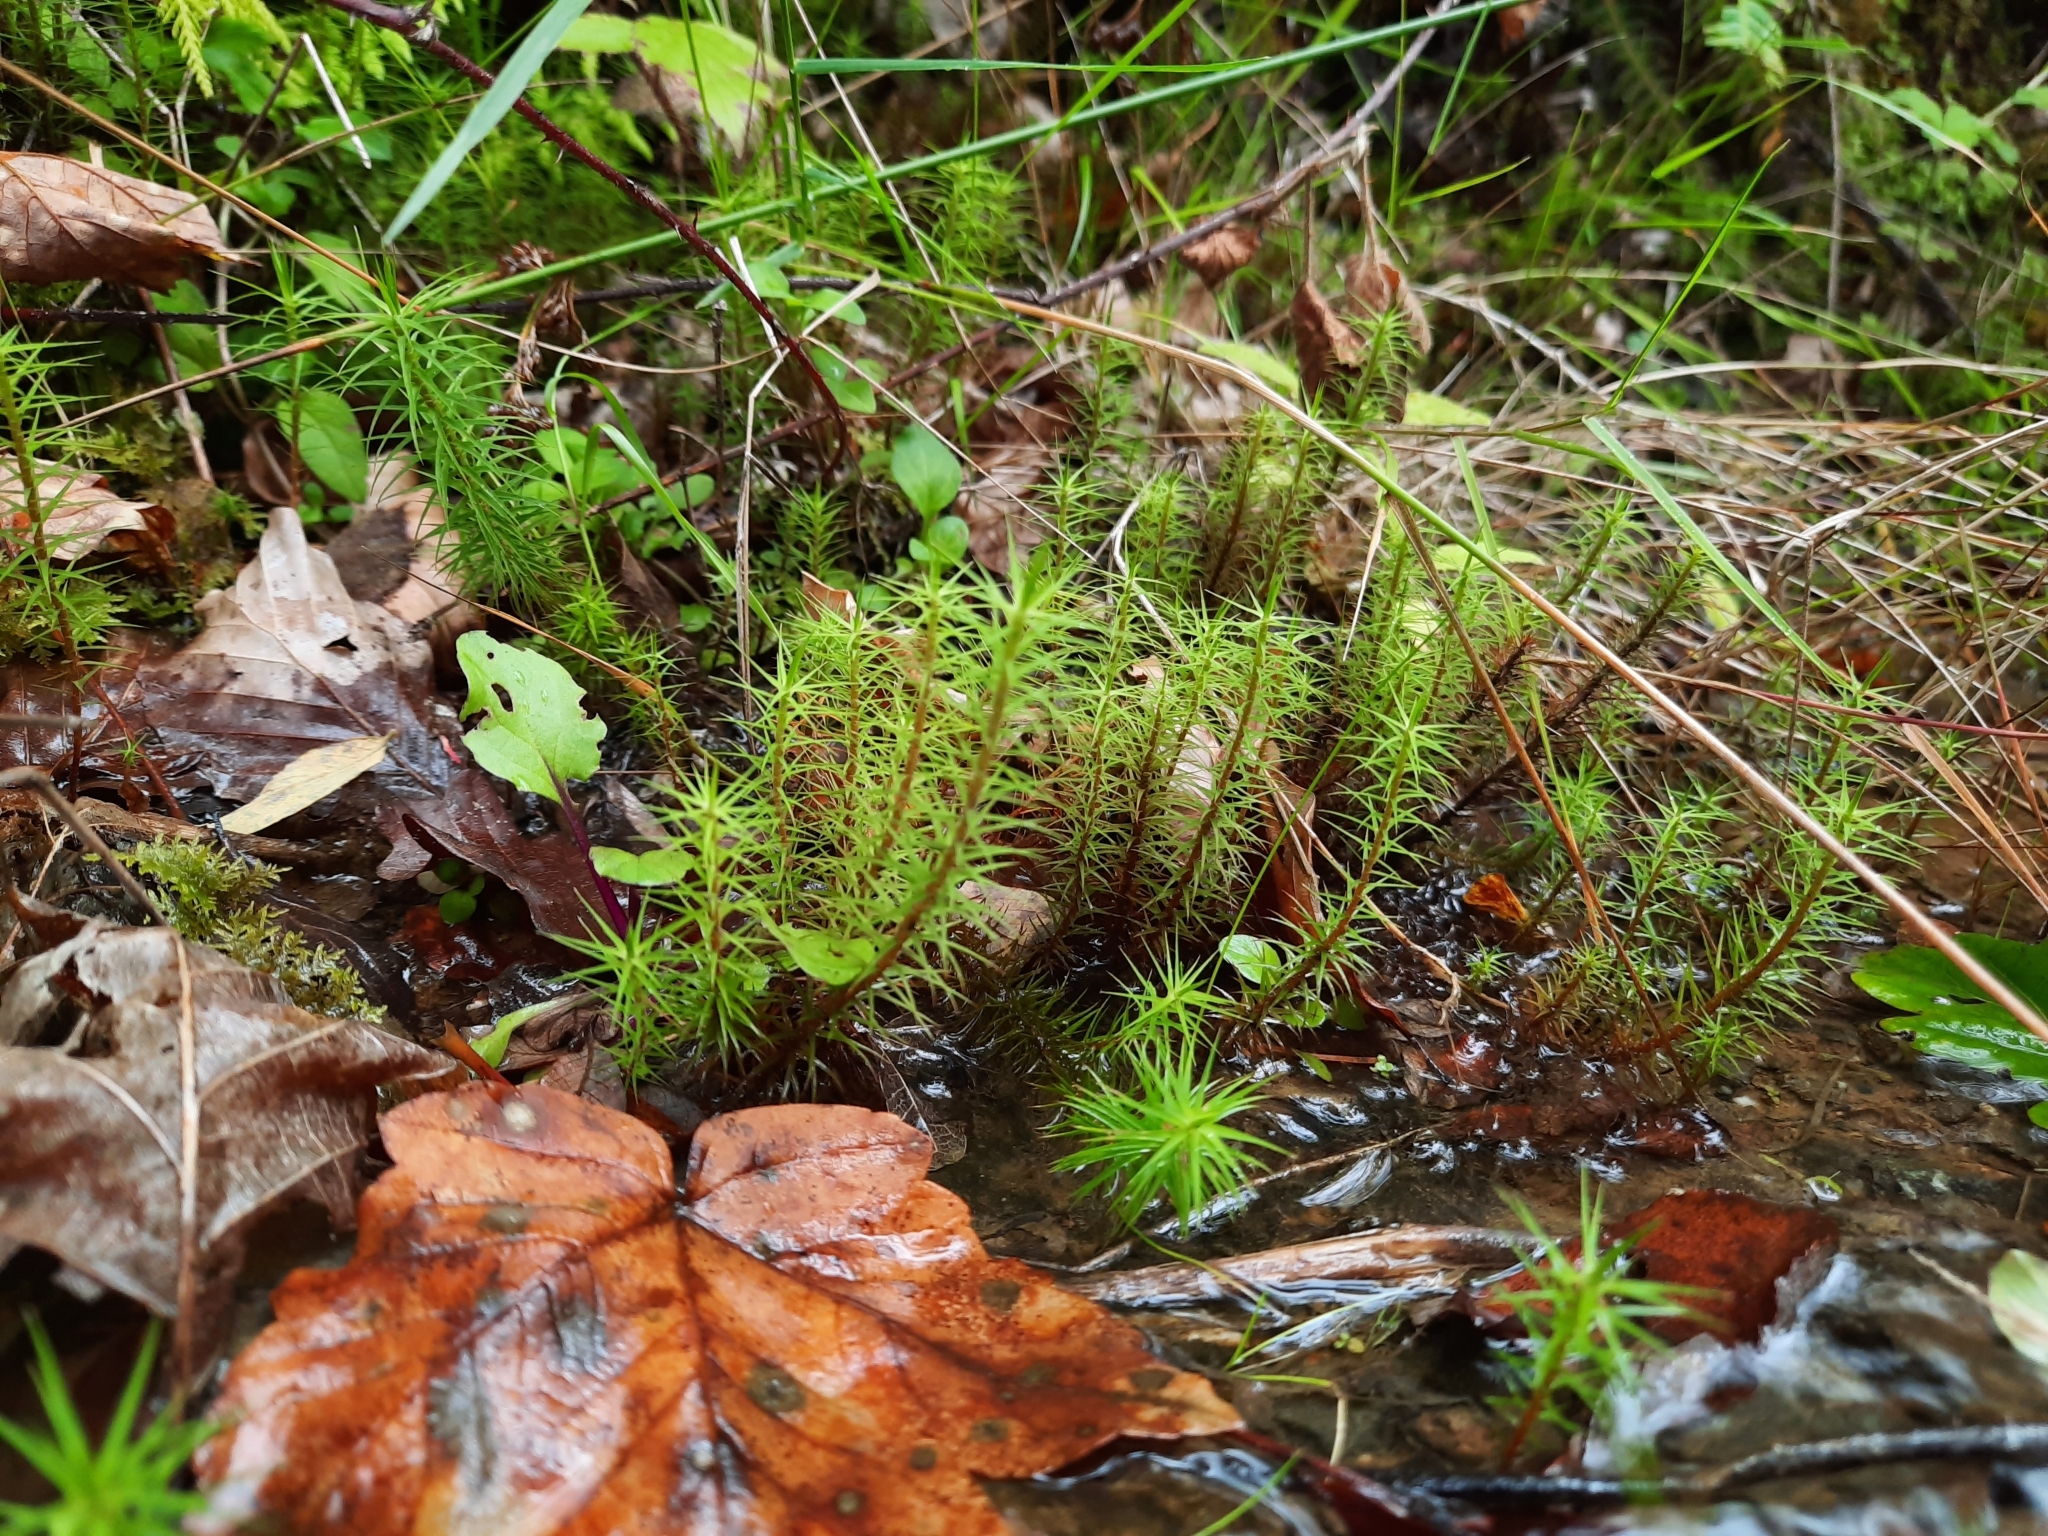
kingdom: Plantae
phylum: Bryophyta
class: Polytrichopsida
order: Polytrichales
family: Polytrichaceae
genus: Polytrichum
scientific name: Polytrichum commune
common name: Common haircap
